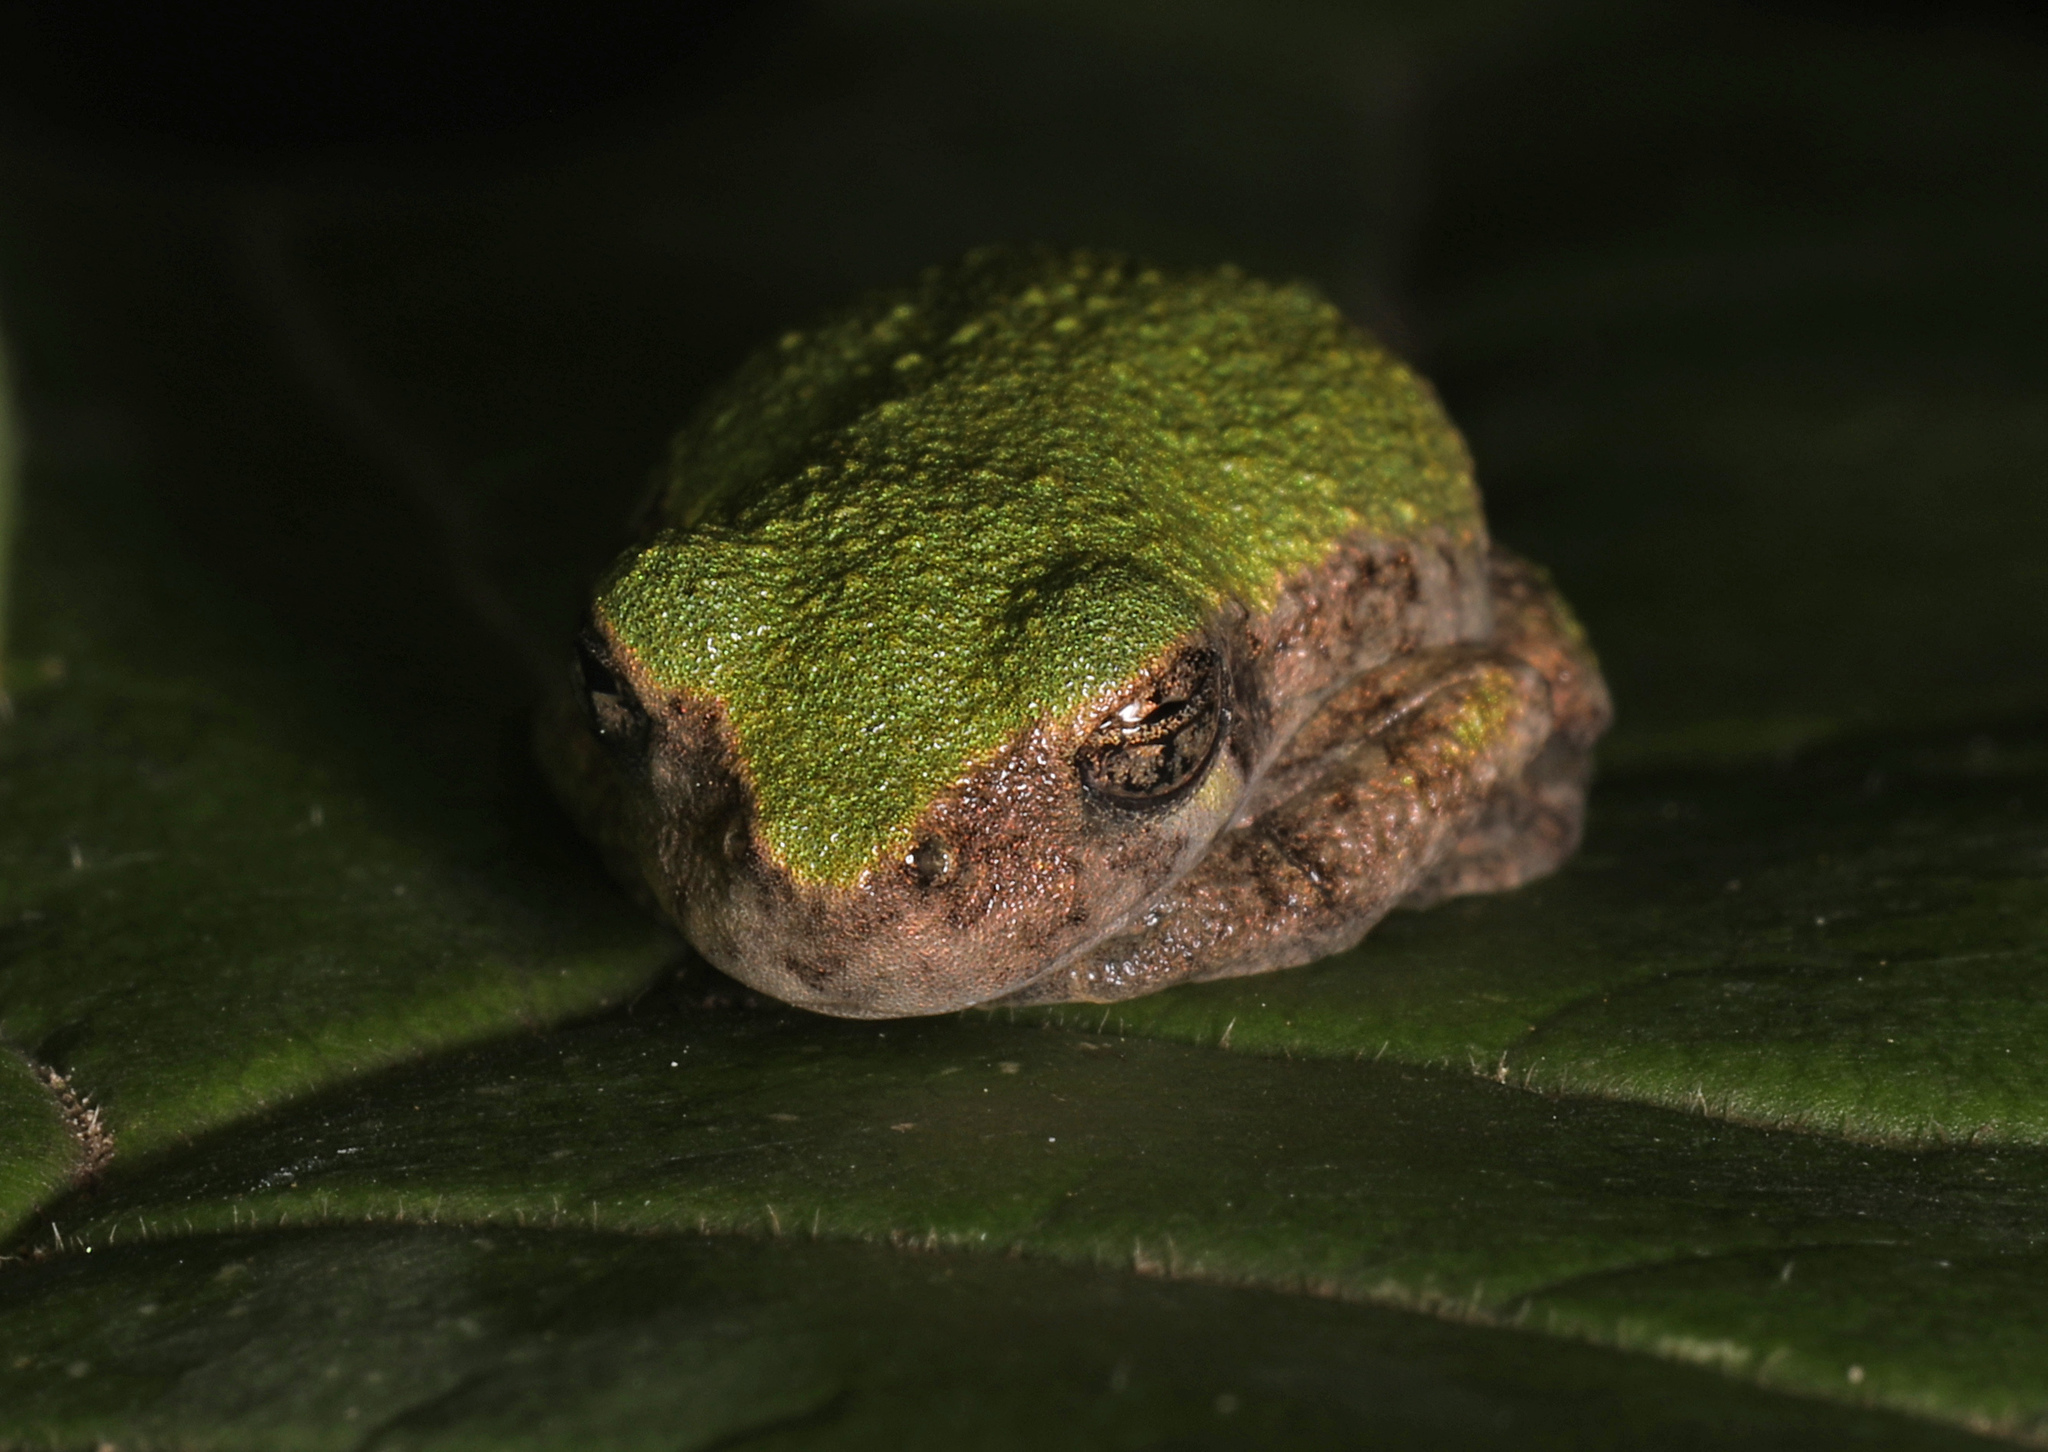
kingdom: Animalia
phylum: Chordata
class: Amphibia
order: Anura
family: Hylidae
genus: Hyla
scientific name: Hyla
